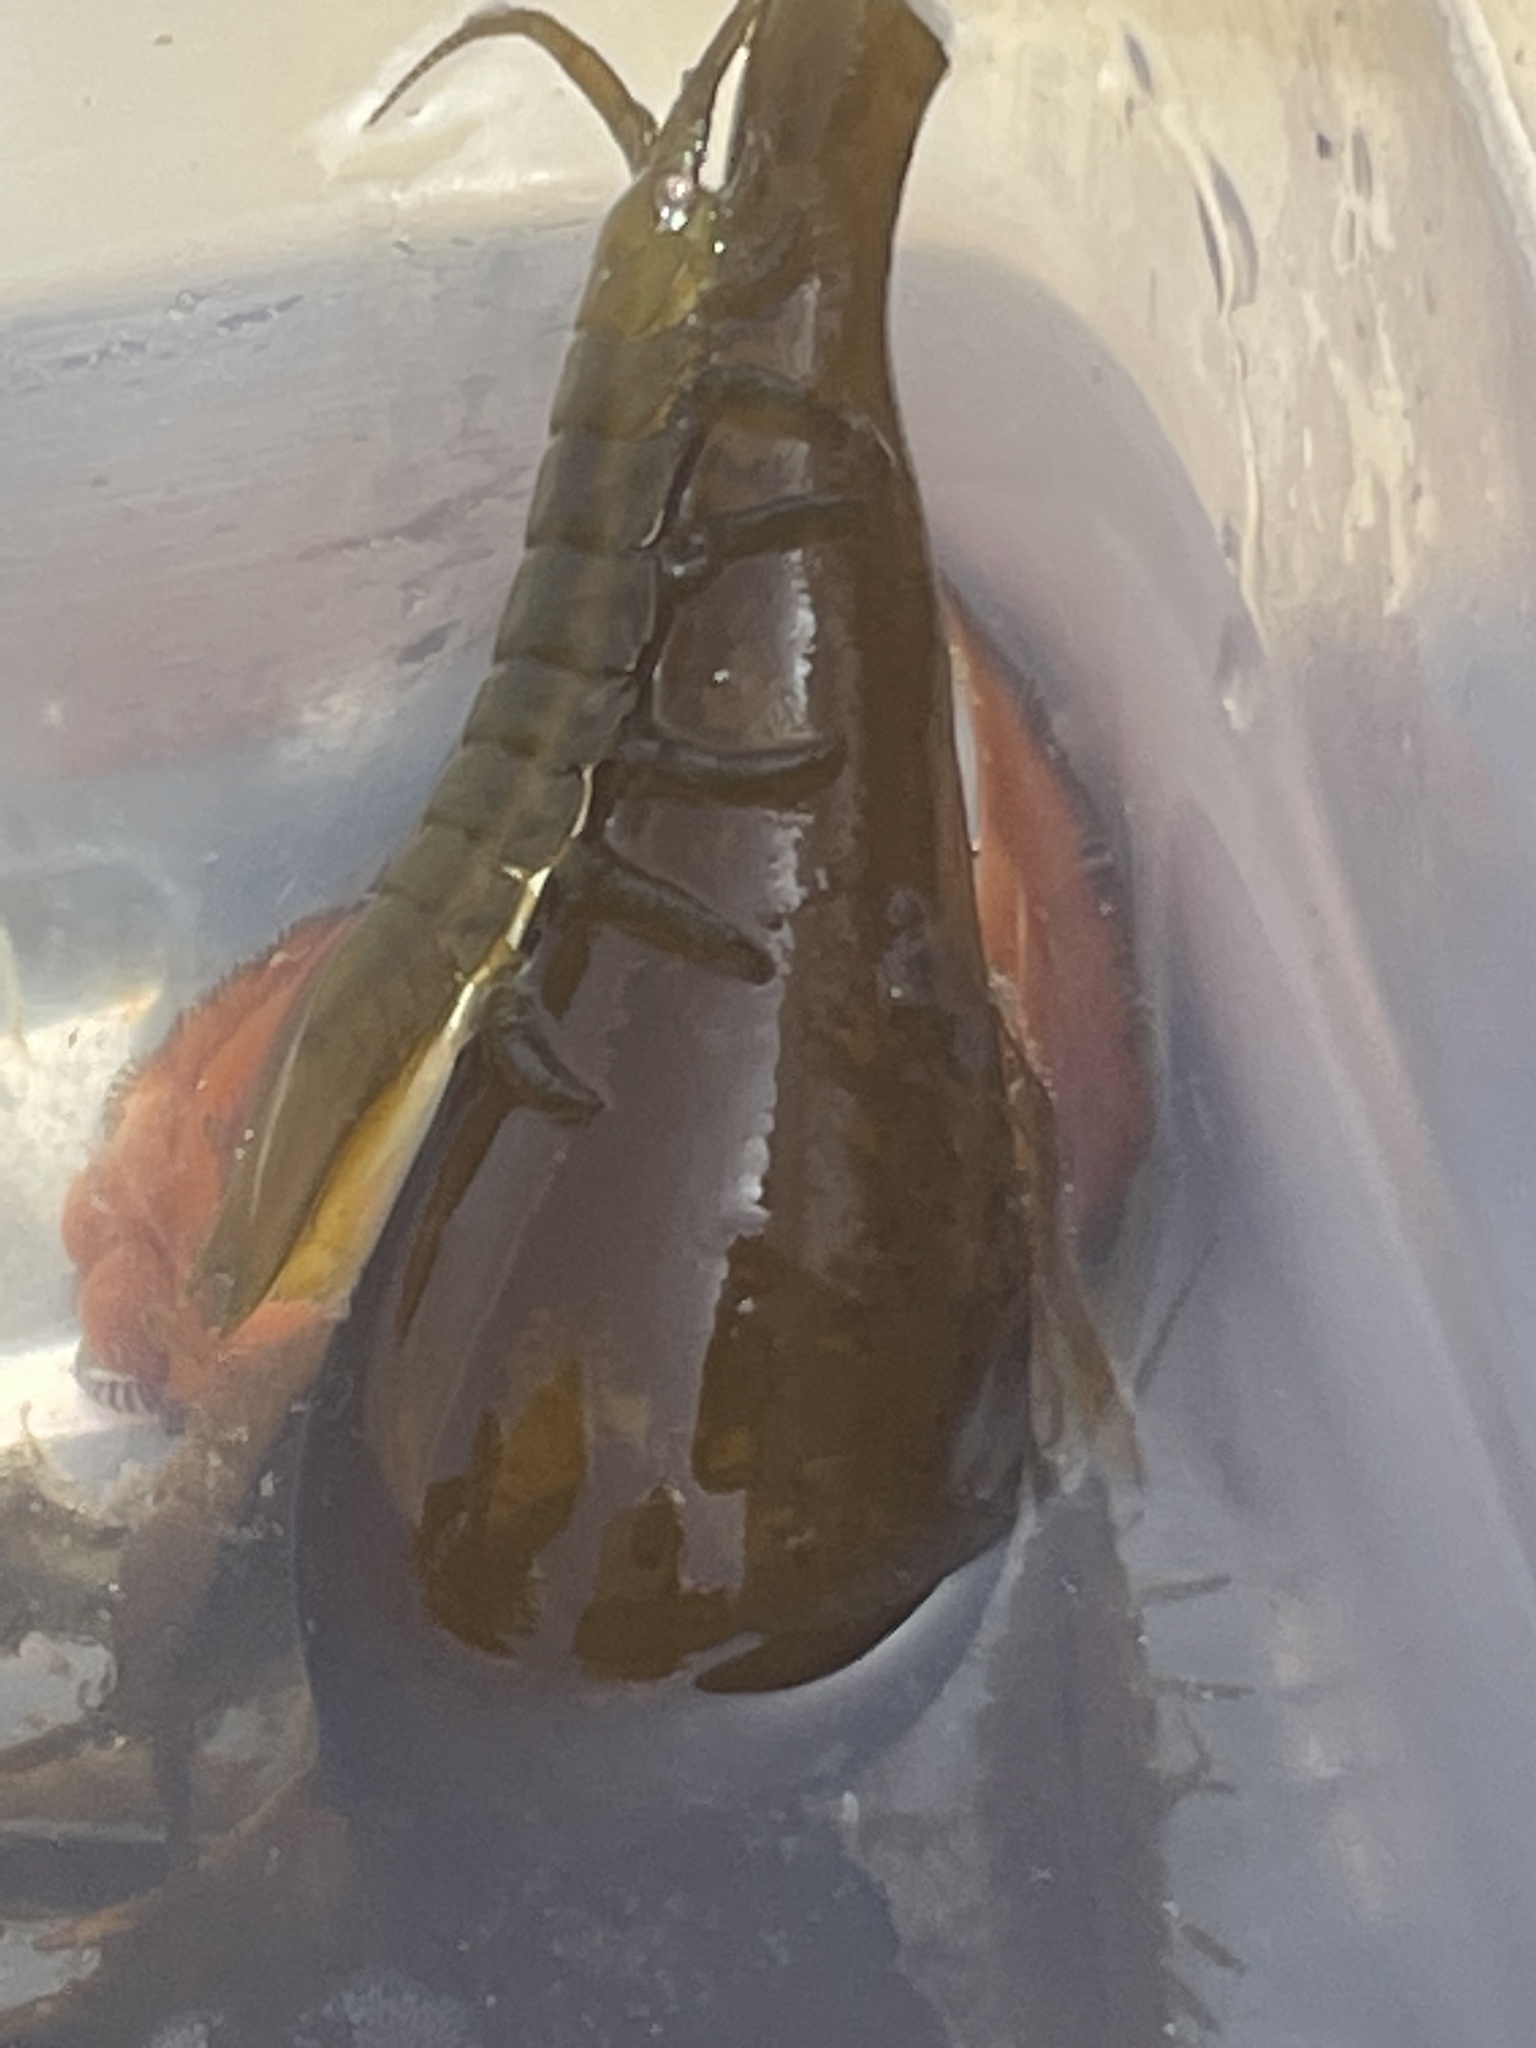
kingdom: Animalia
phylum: Arthropoda
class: Malacostraca
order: Isopoda
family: Idoteidae
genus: Pentidotea
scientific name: Pentidotea resecata
